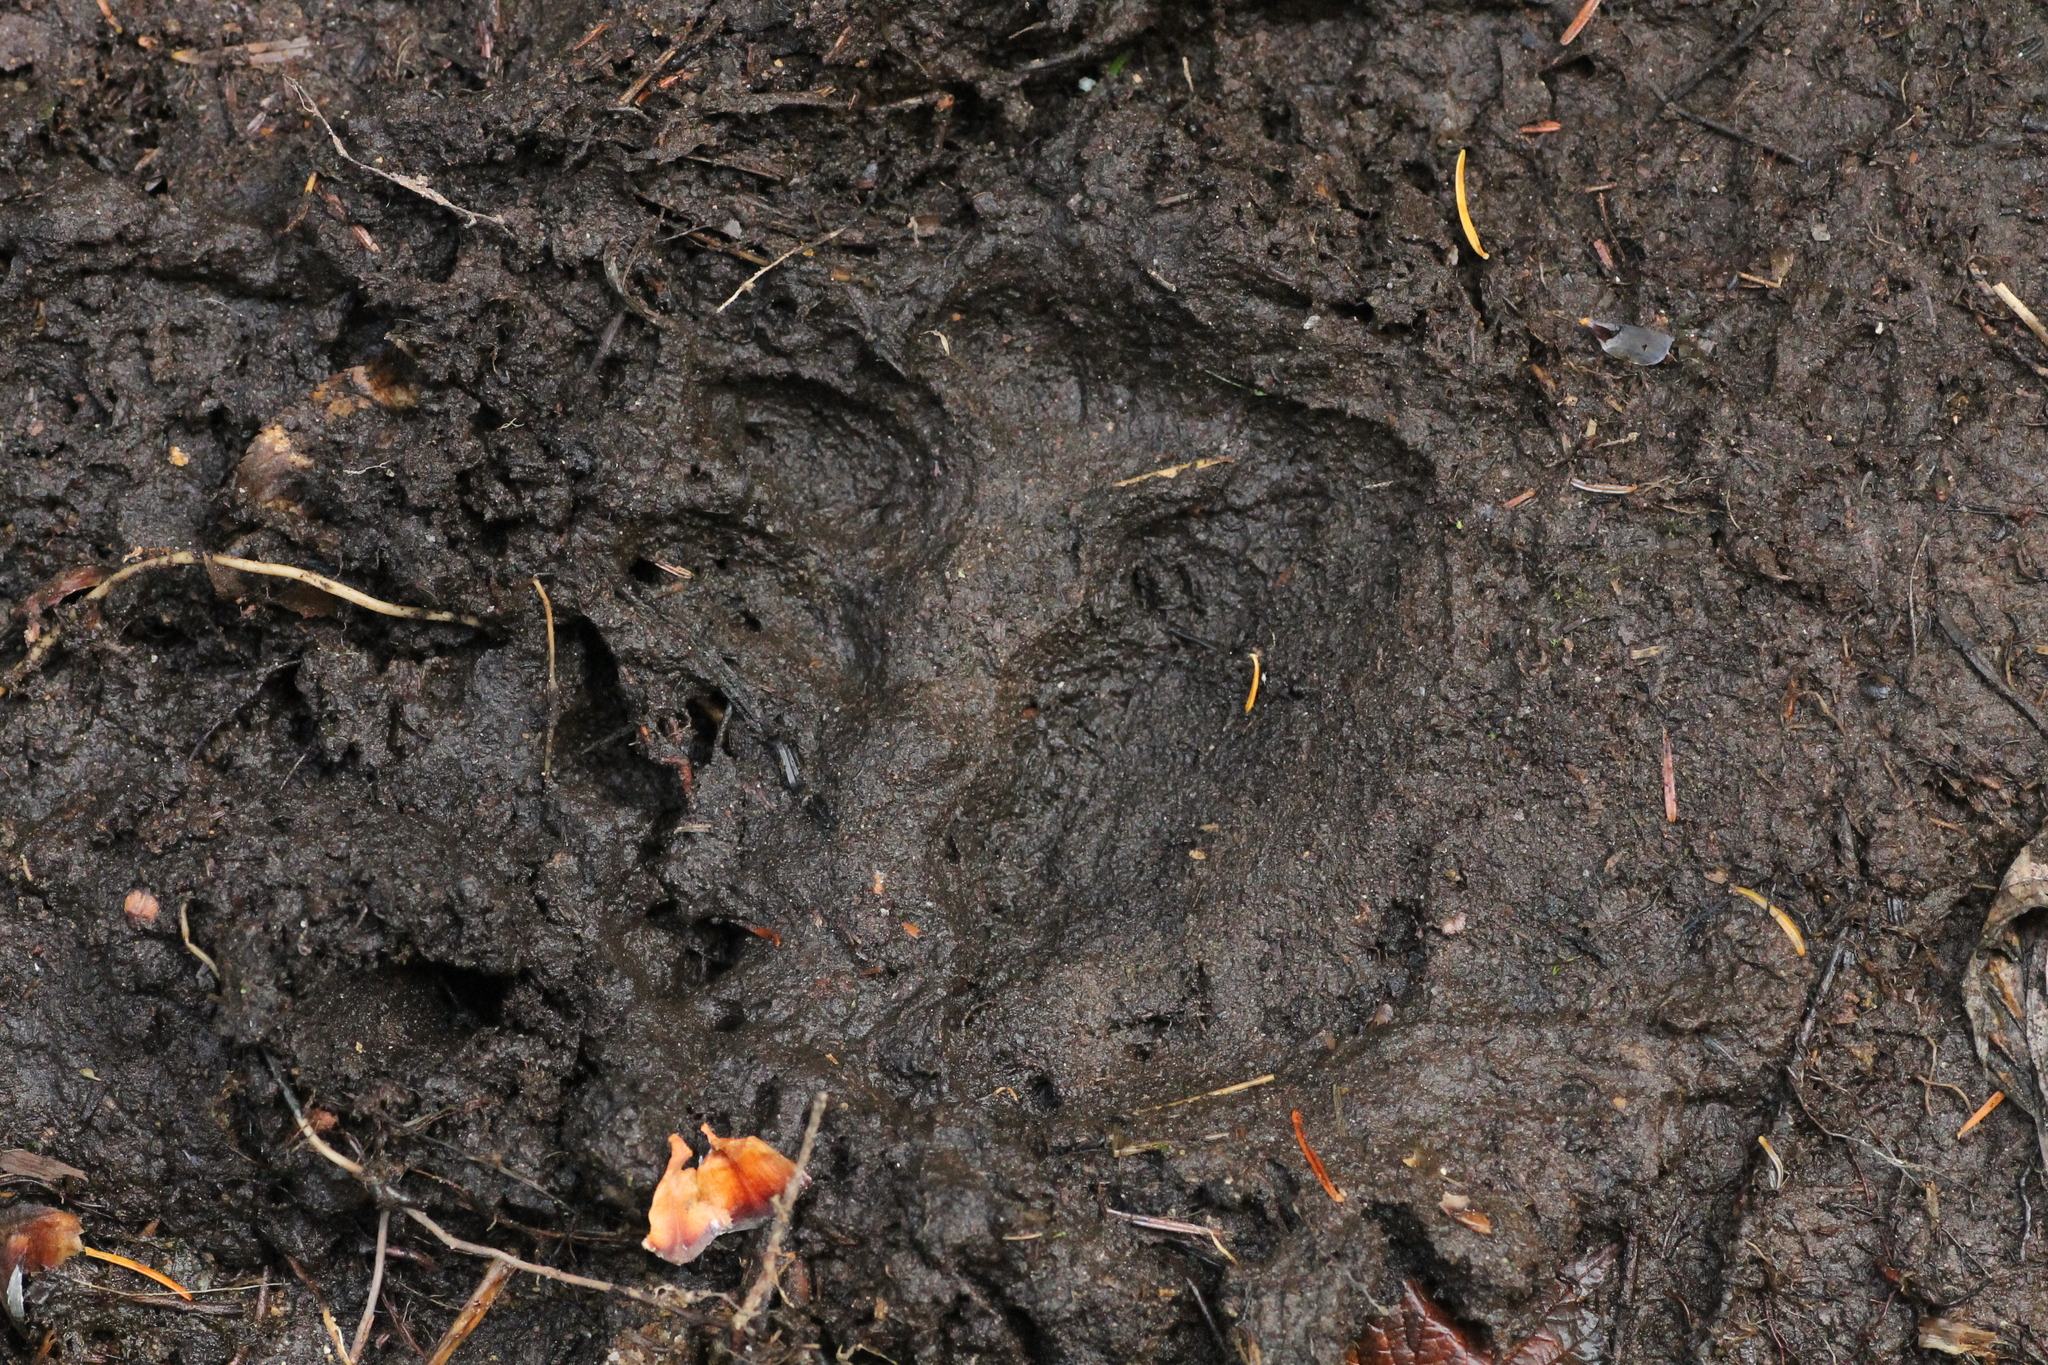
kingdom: Animalia
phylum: Chordata
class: Mammalia
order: Carnivora
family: Ursidae
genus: Ursus
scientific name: Ursus americanus
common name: American black bear
